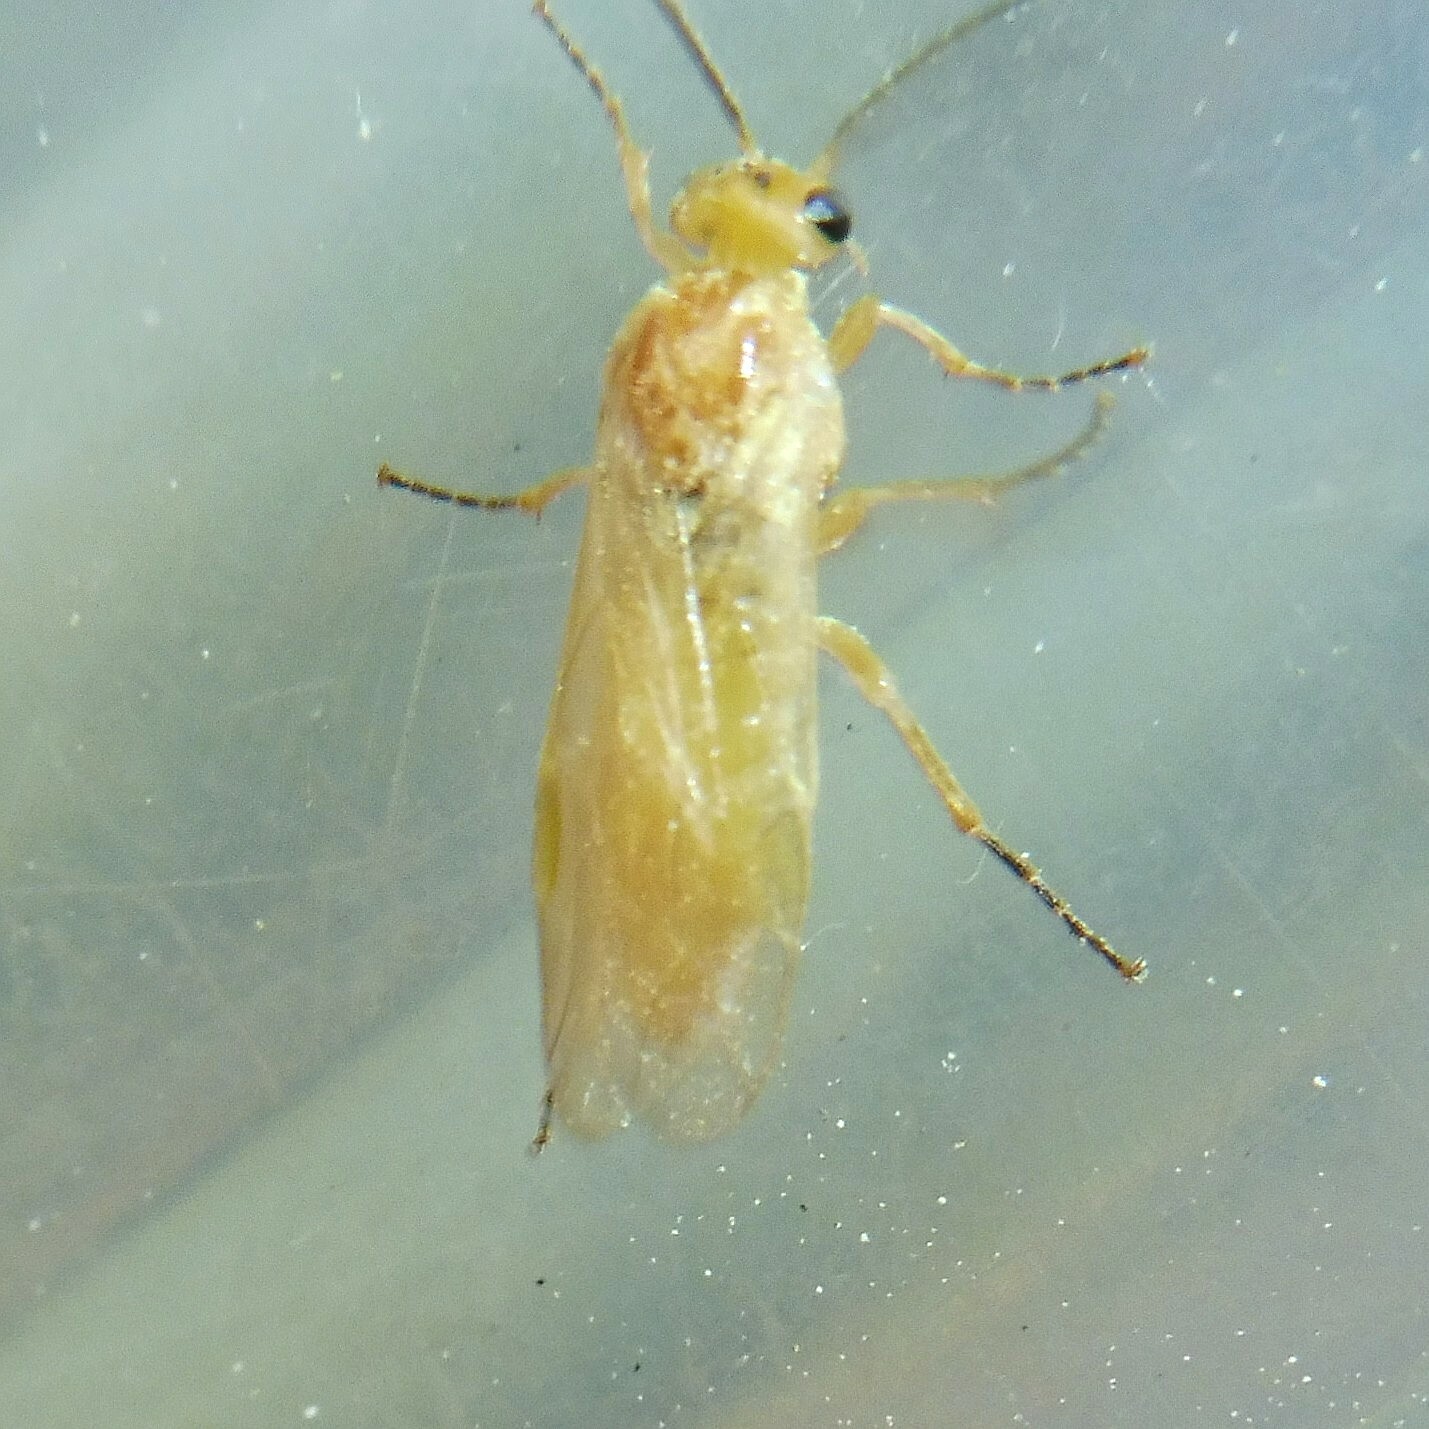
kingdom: Animalia
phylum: Arthropoda
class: Insecta
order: Hymenoptera
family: Tenthredinidae
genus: Hoplocampa
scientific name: Hoplocampa alpina
